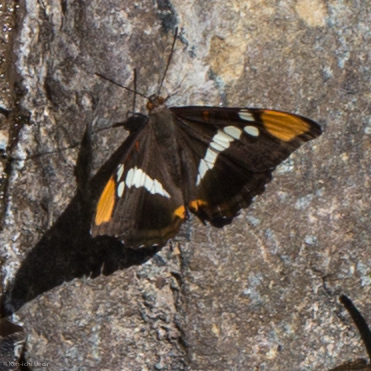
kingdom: Animalia
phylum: Arthropoda
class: Insecta
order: Lepidoptera
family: Nymphalidae
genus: Limenitis
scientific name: Limenitis bredowii
